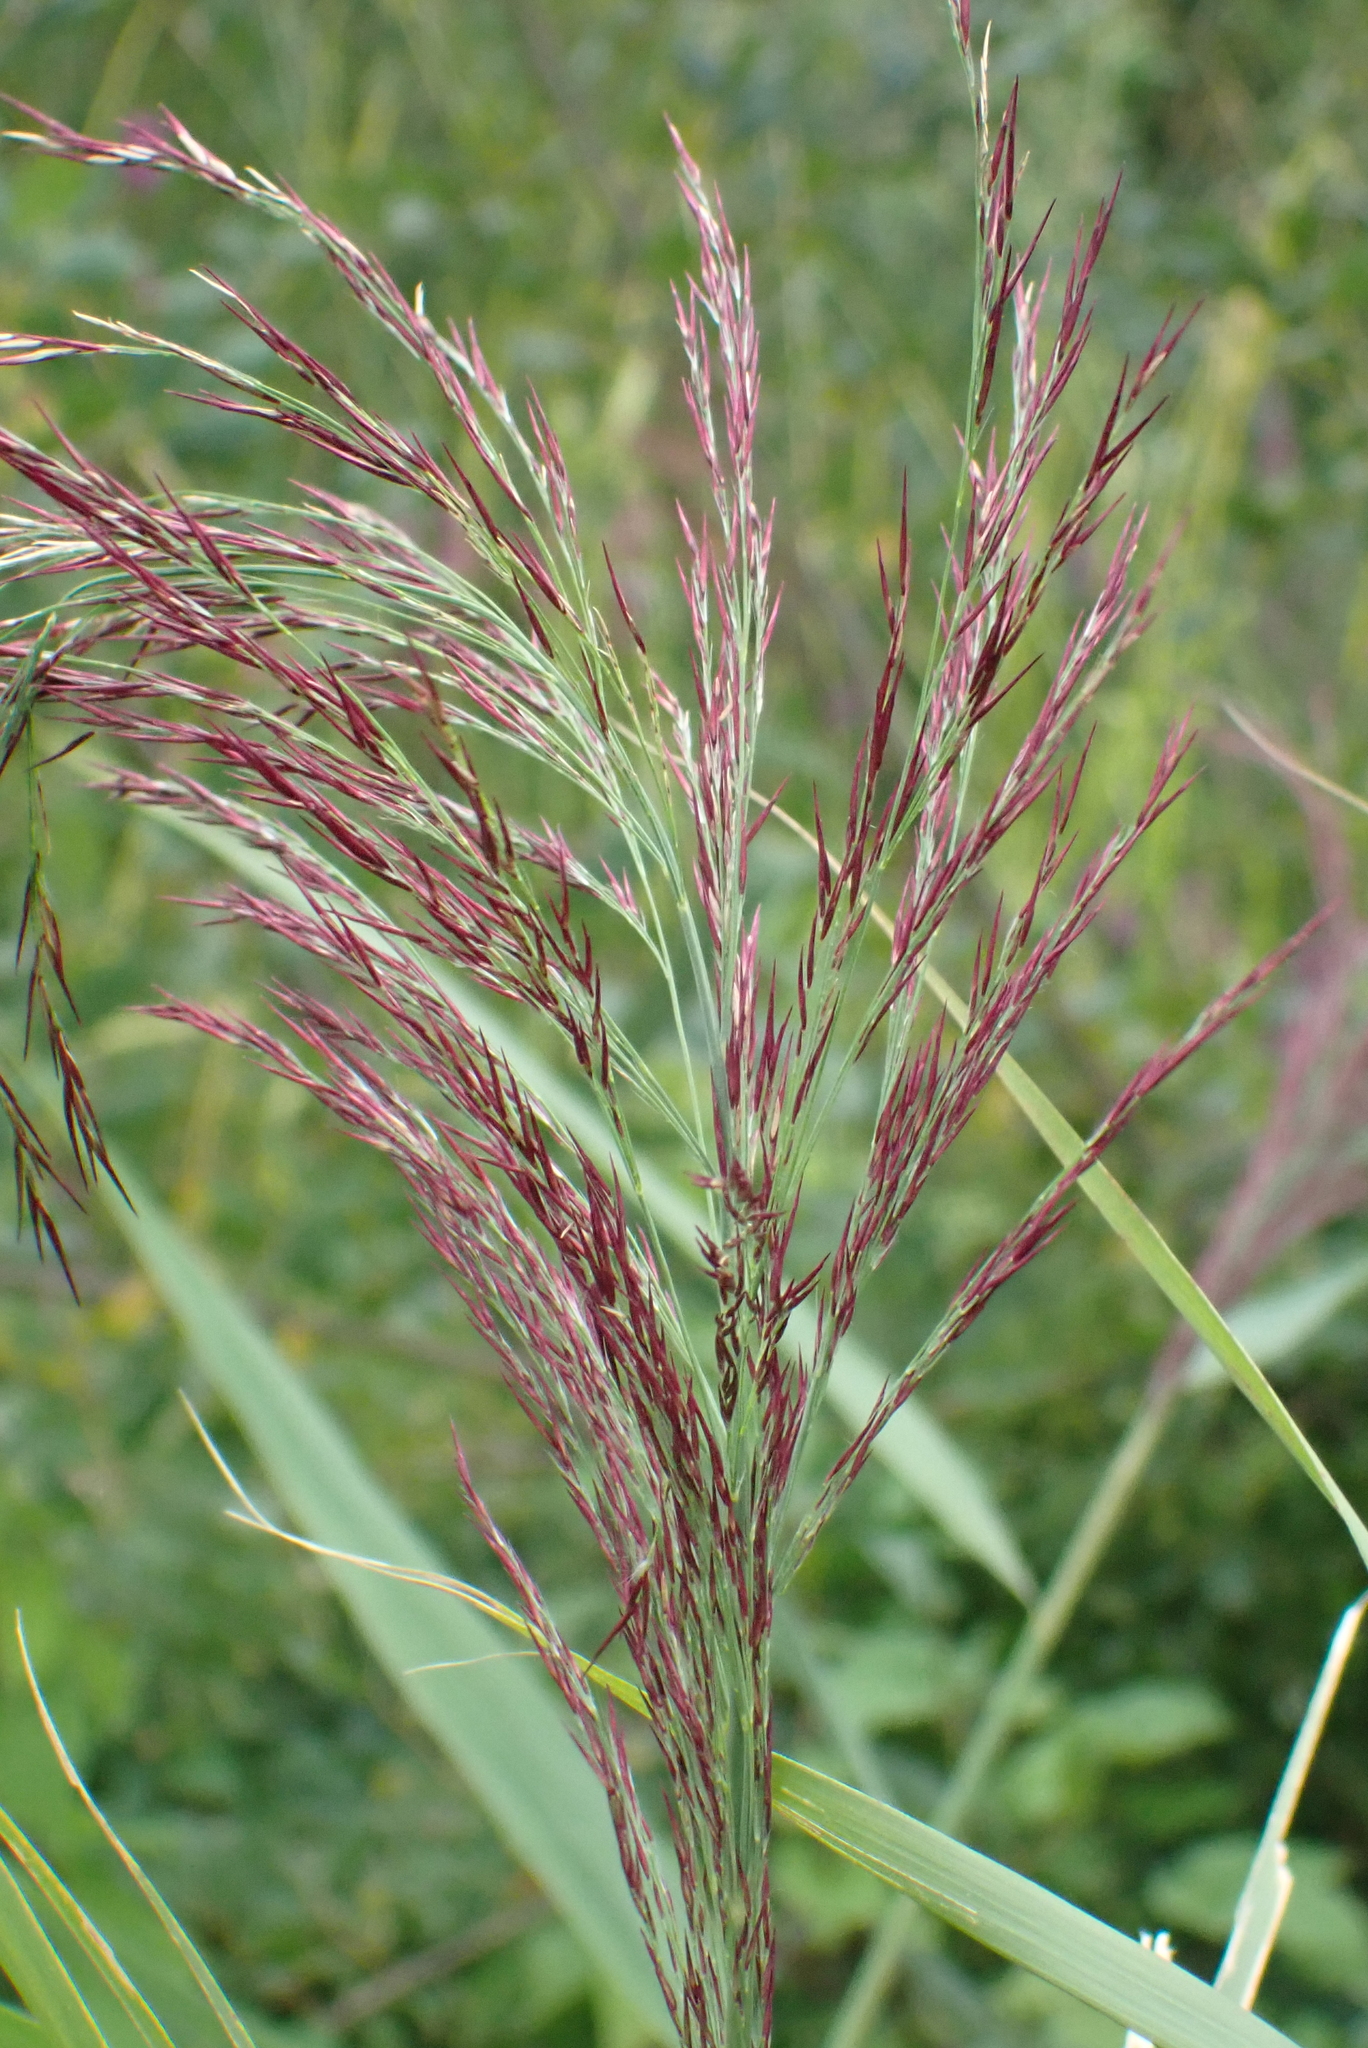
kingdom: Plantae
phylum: Tracheophyta
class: Liliopsida
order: Poales
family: Poaceae
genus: Phragmites
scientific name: Phragmites australis
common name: Common reed
